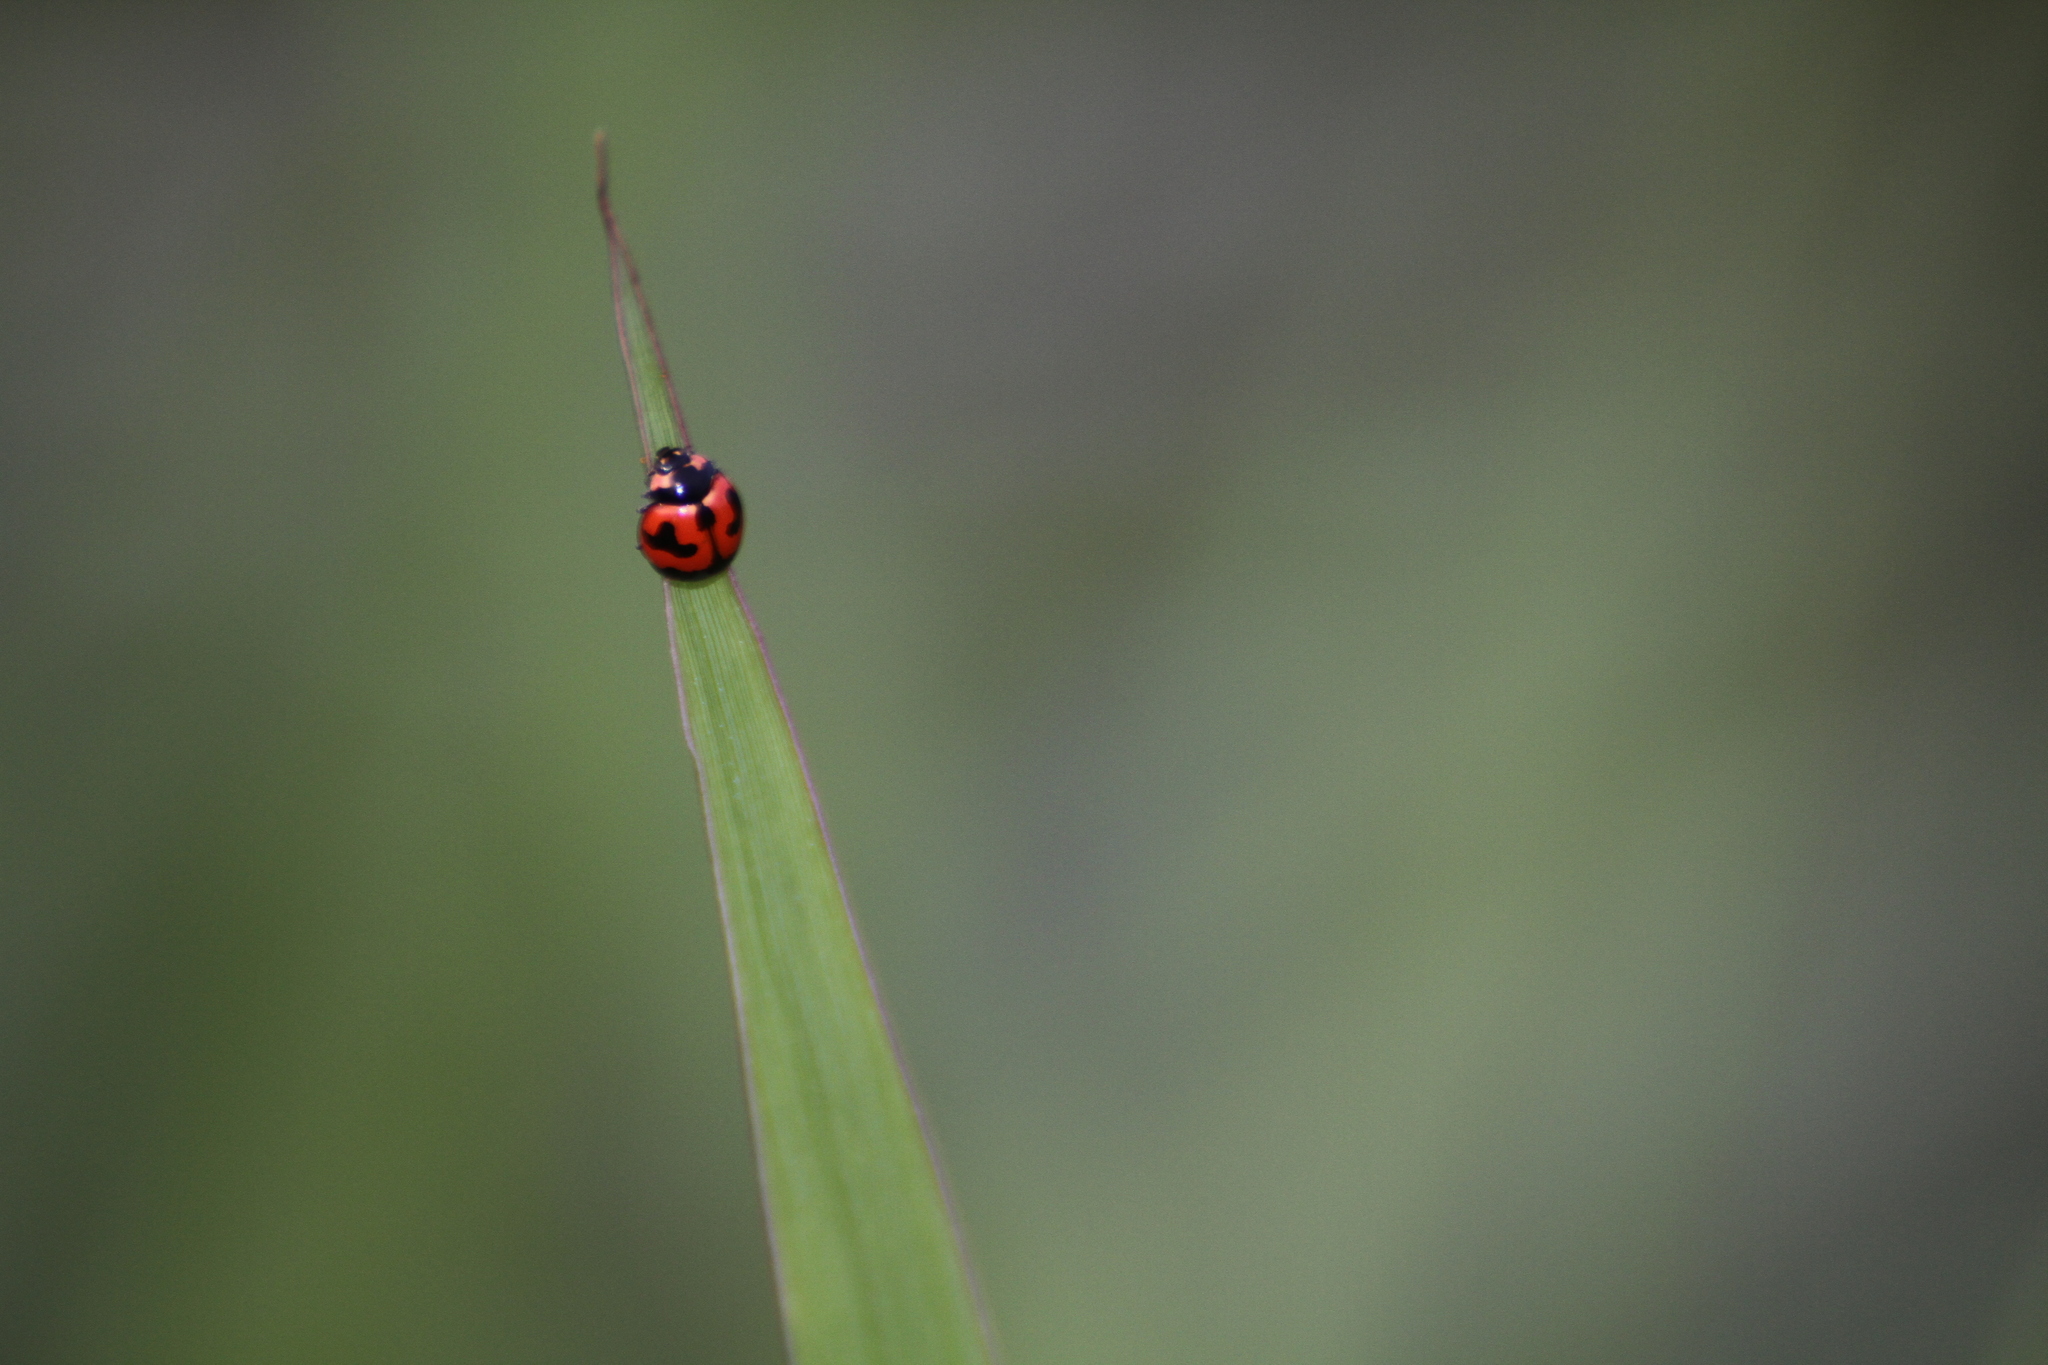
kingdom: Animalia
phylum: Arthropoda
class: Insecta
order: Coleoptera
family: Coccinellidae
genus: Coccinella
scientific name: Coccinella transversalis
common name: Transverse lady beetle
